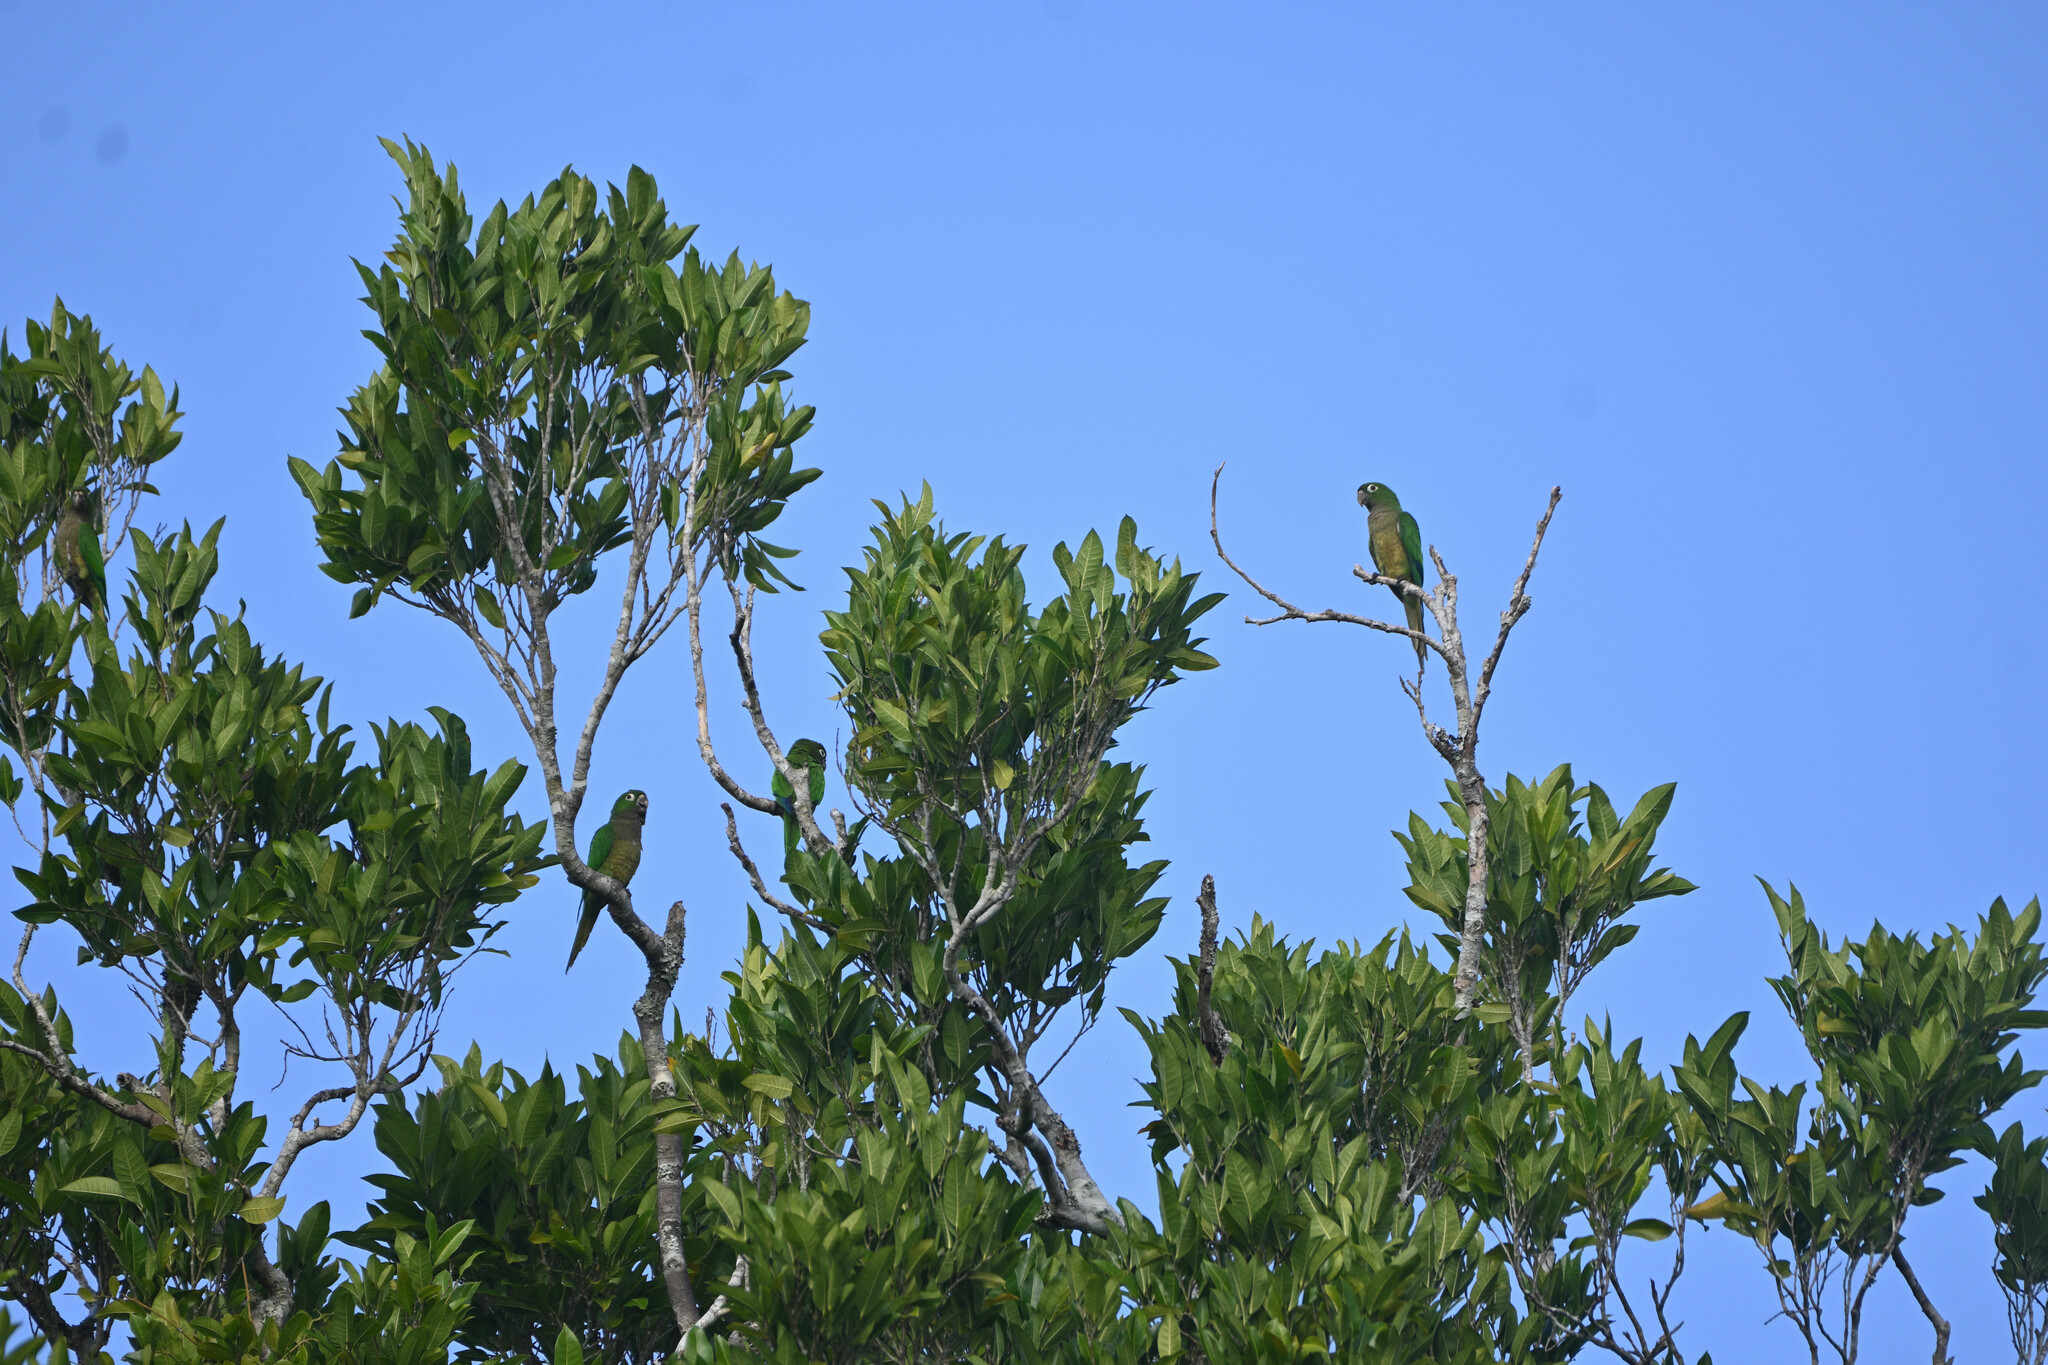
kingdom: Animalia
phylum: Chordata
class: Aves
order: Psittaciformes
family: Psittacidae
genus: Aratinga
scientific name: Aratinga nana
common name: Olive-throated parakeet
